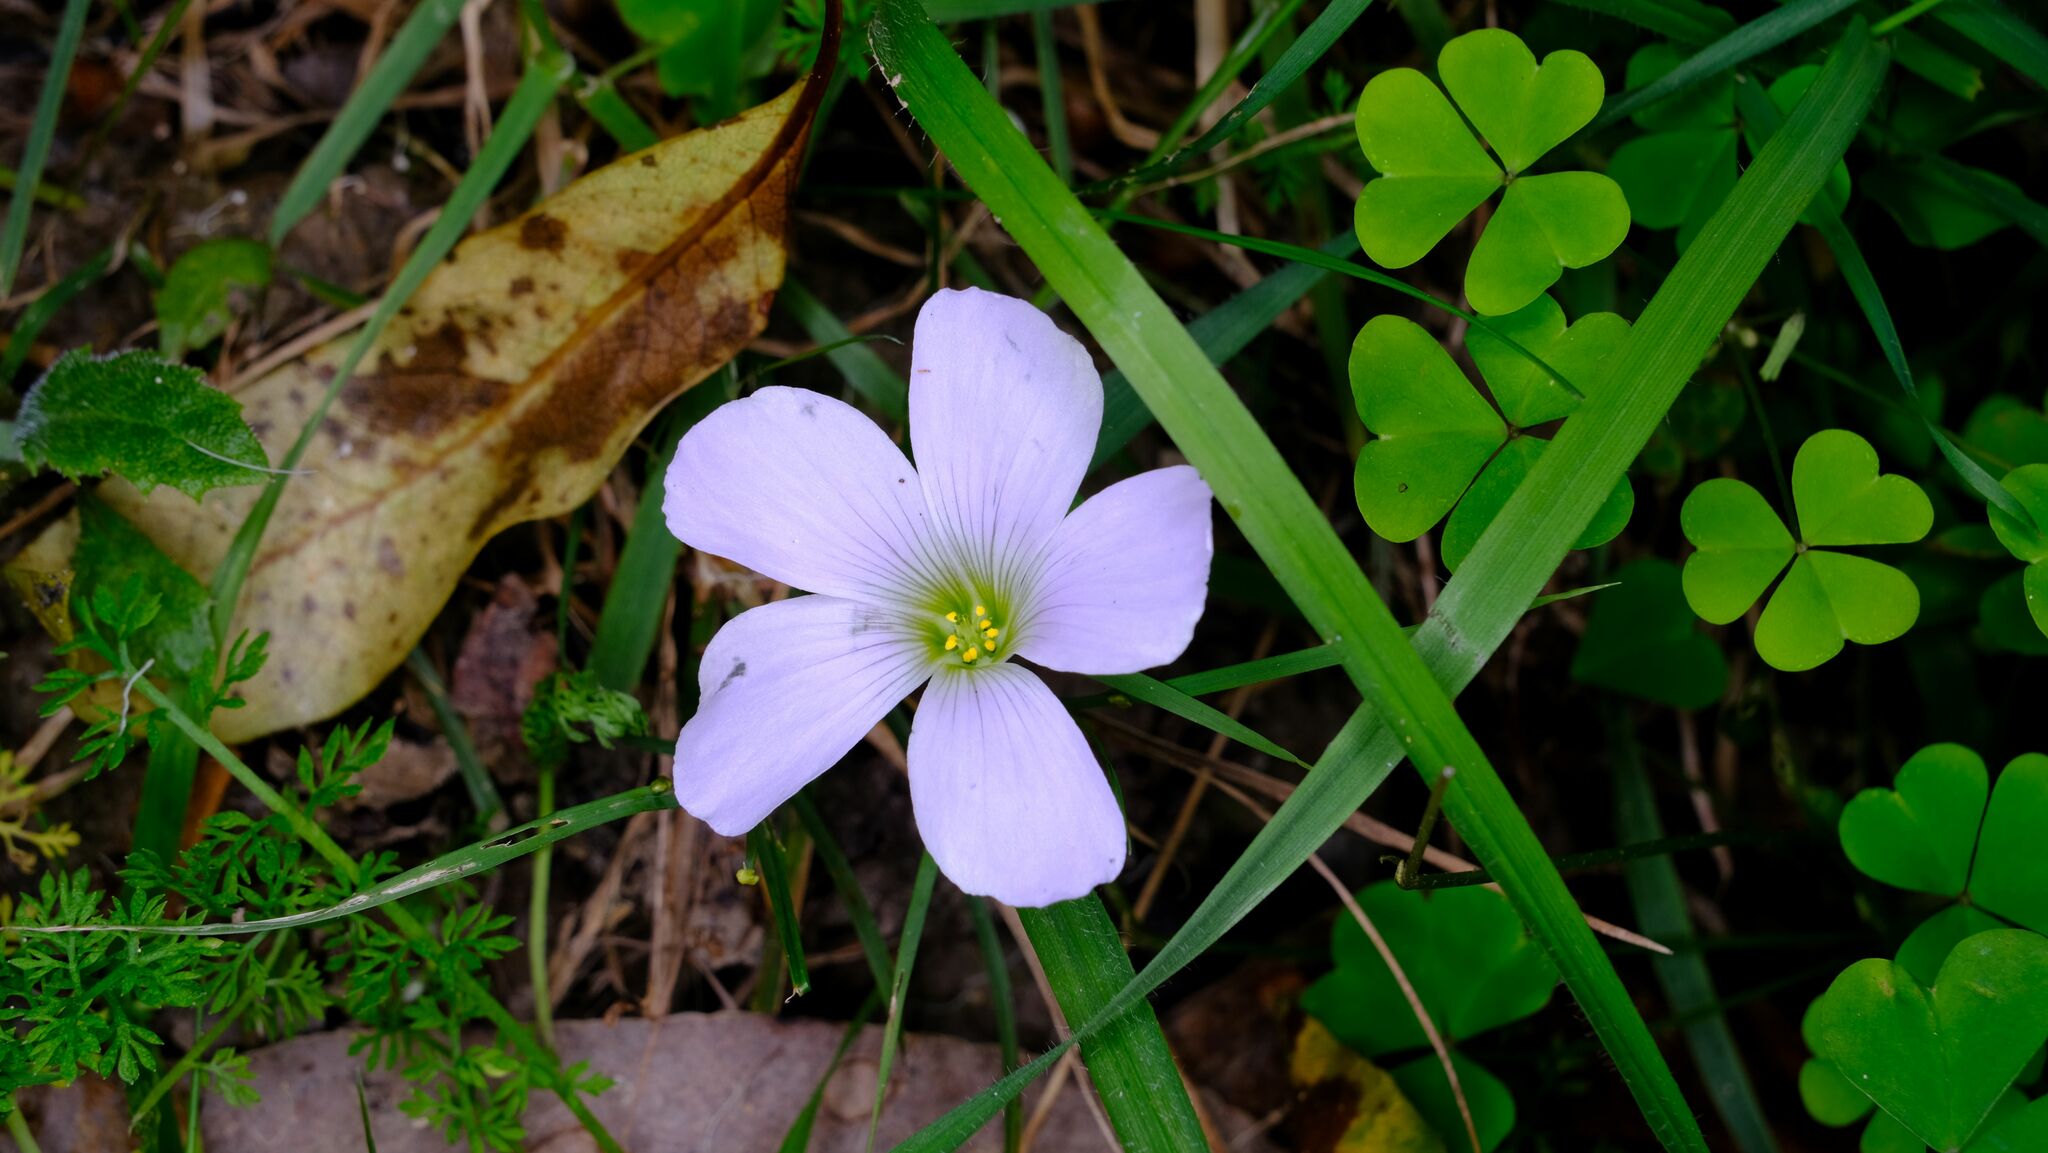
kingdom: Plantae
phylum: Tracheophyta
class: Magnoliopsida
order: Oxalidales
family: Oxalidaceae
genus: Oxalis
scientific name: Oxalis incarnata
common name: Pale pink-sorrel
